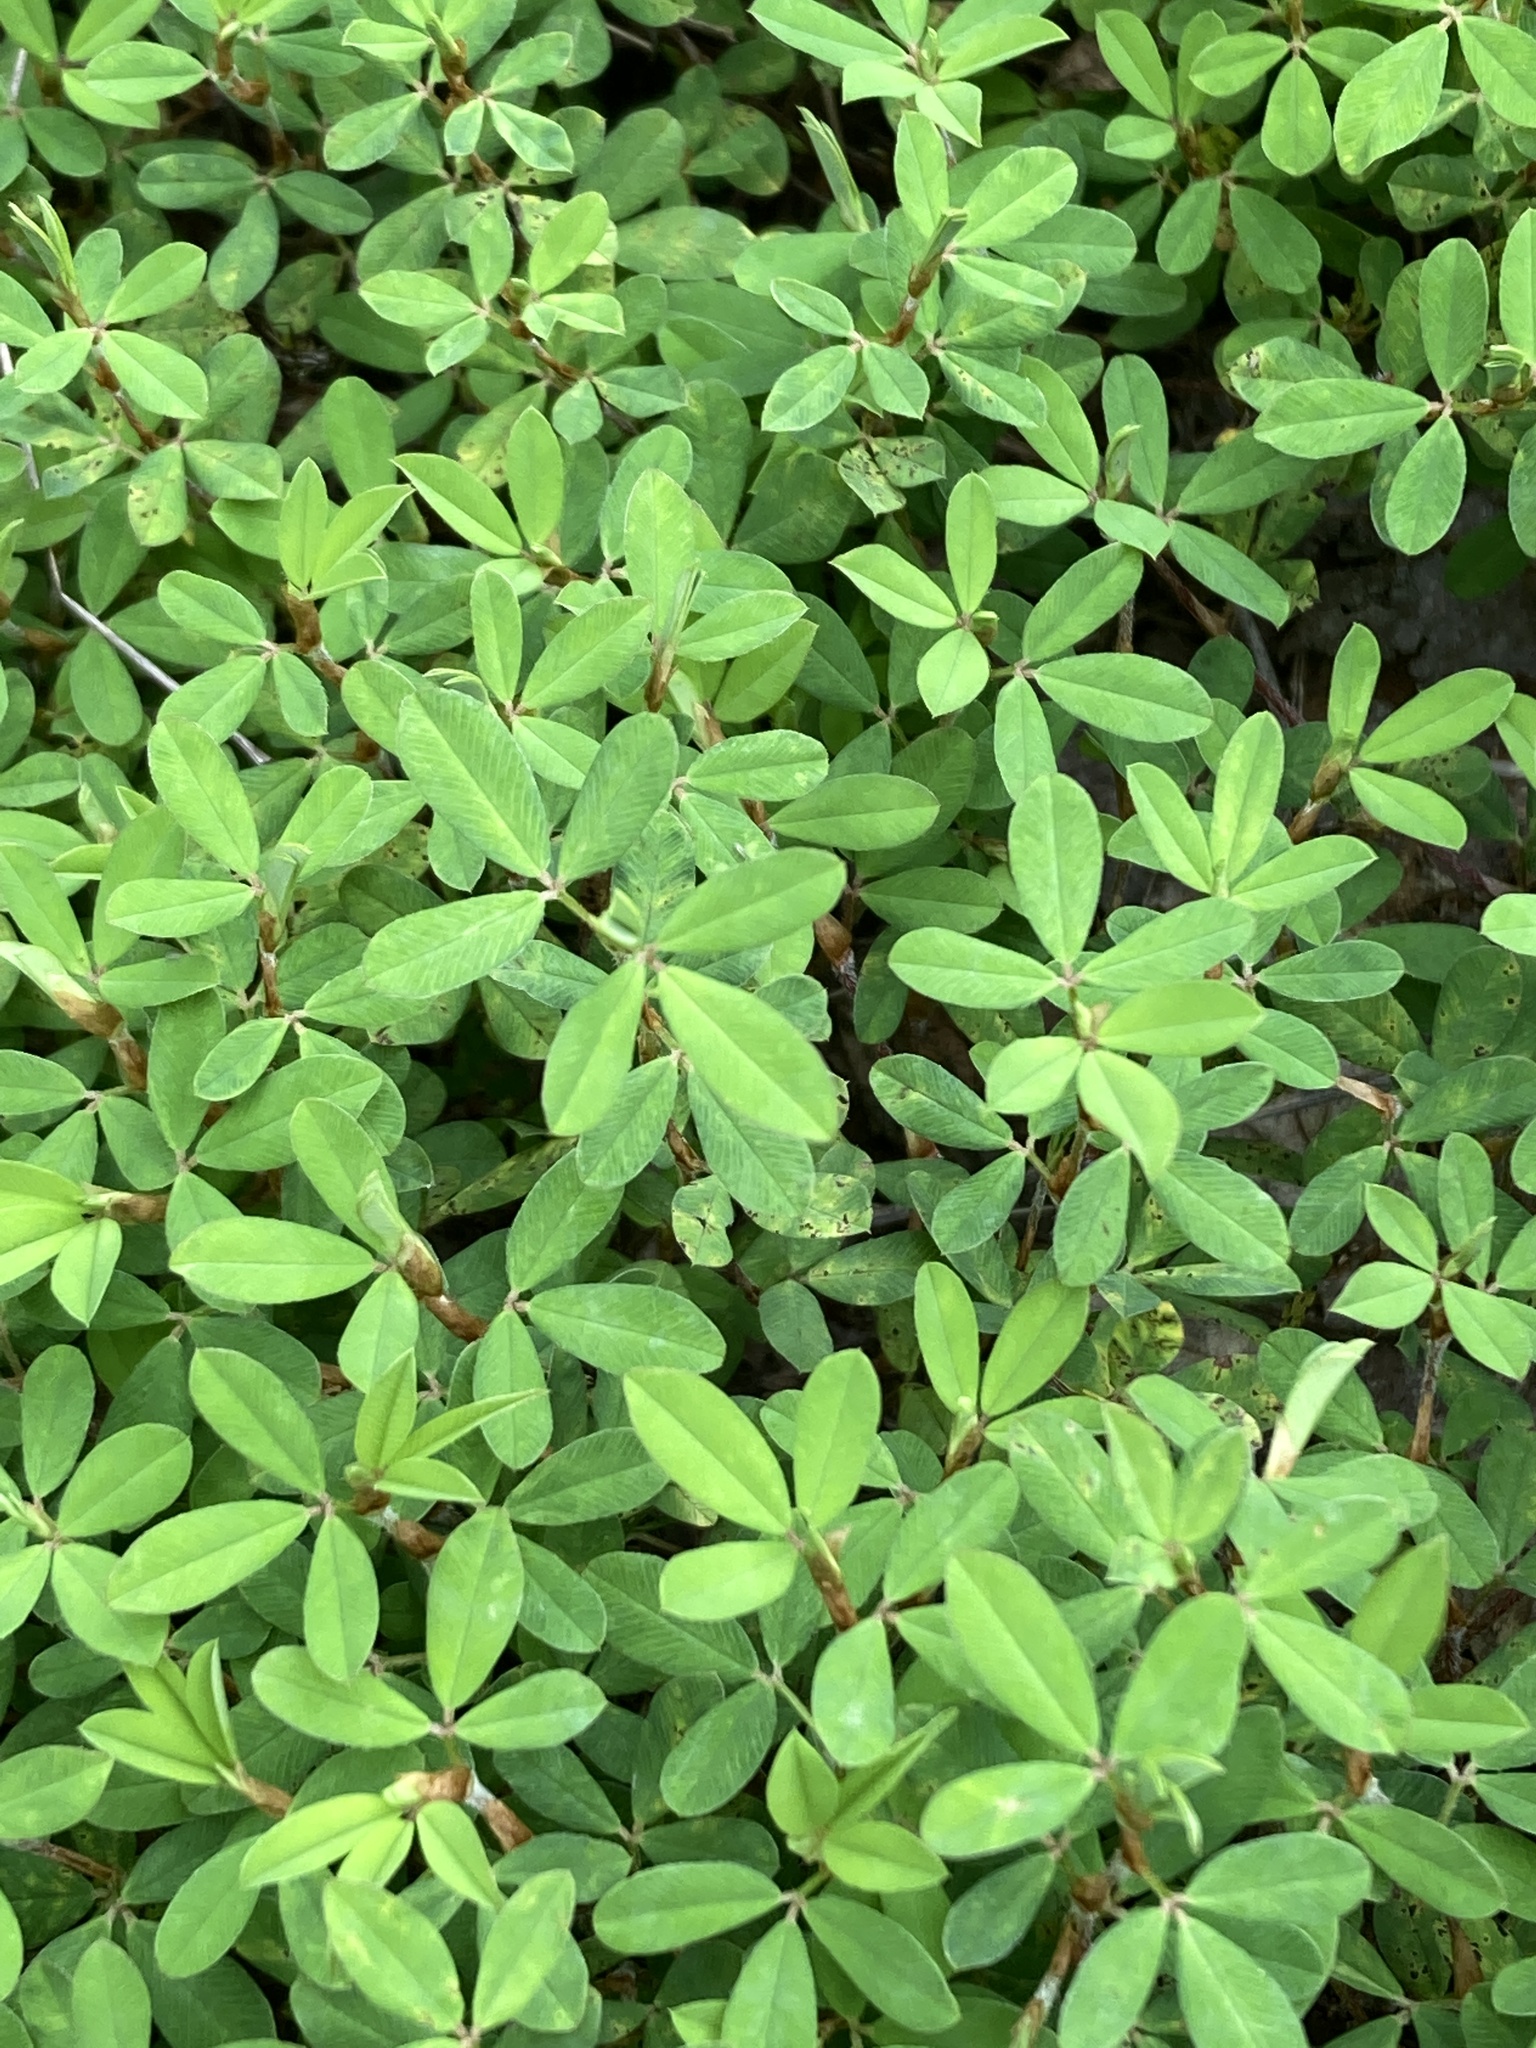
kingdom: Plantae
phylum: Tracheophyta
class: Magnoliopsida
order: Fabales
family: Fabaceae
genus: Kummerowia
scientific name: Kummerowia striata
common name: Japanese clover
